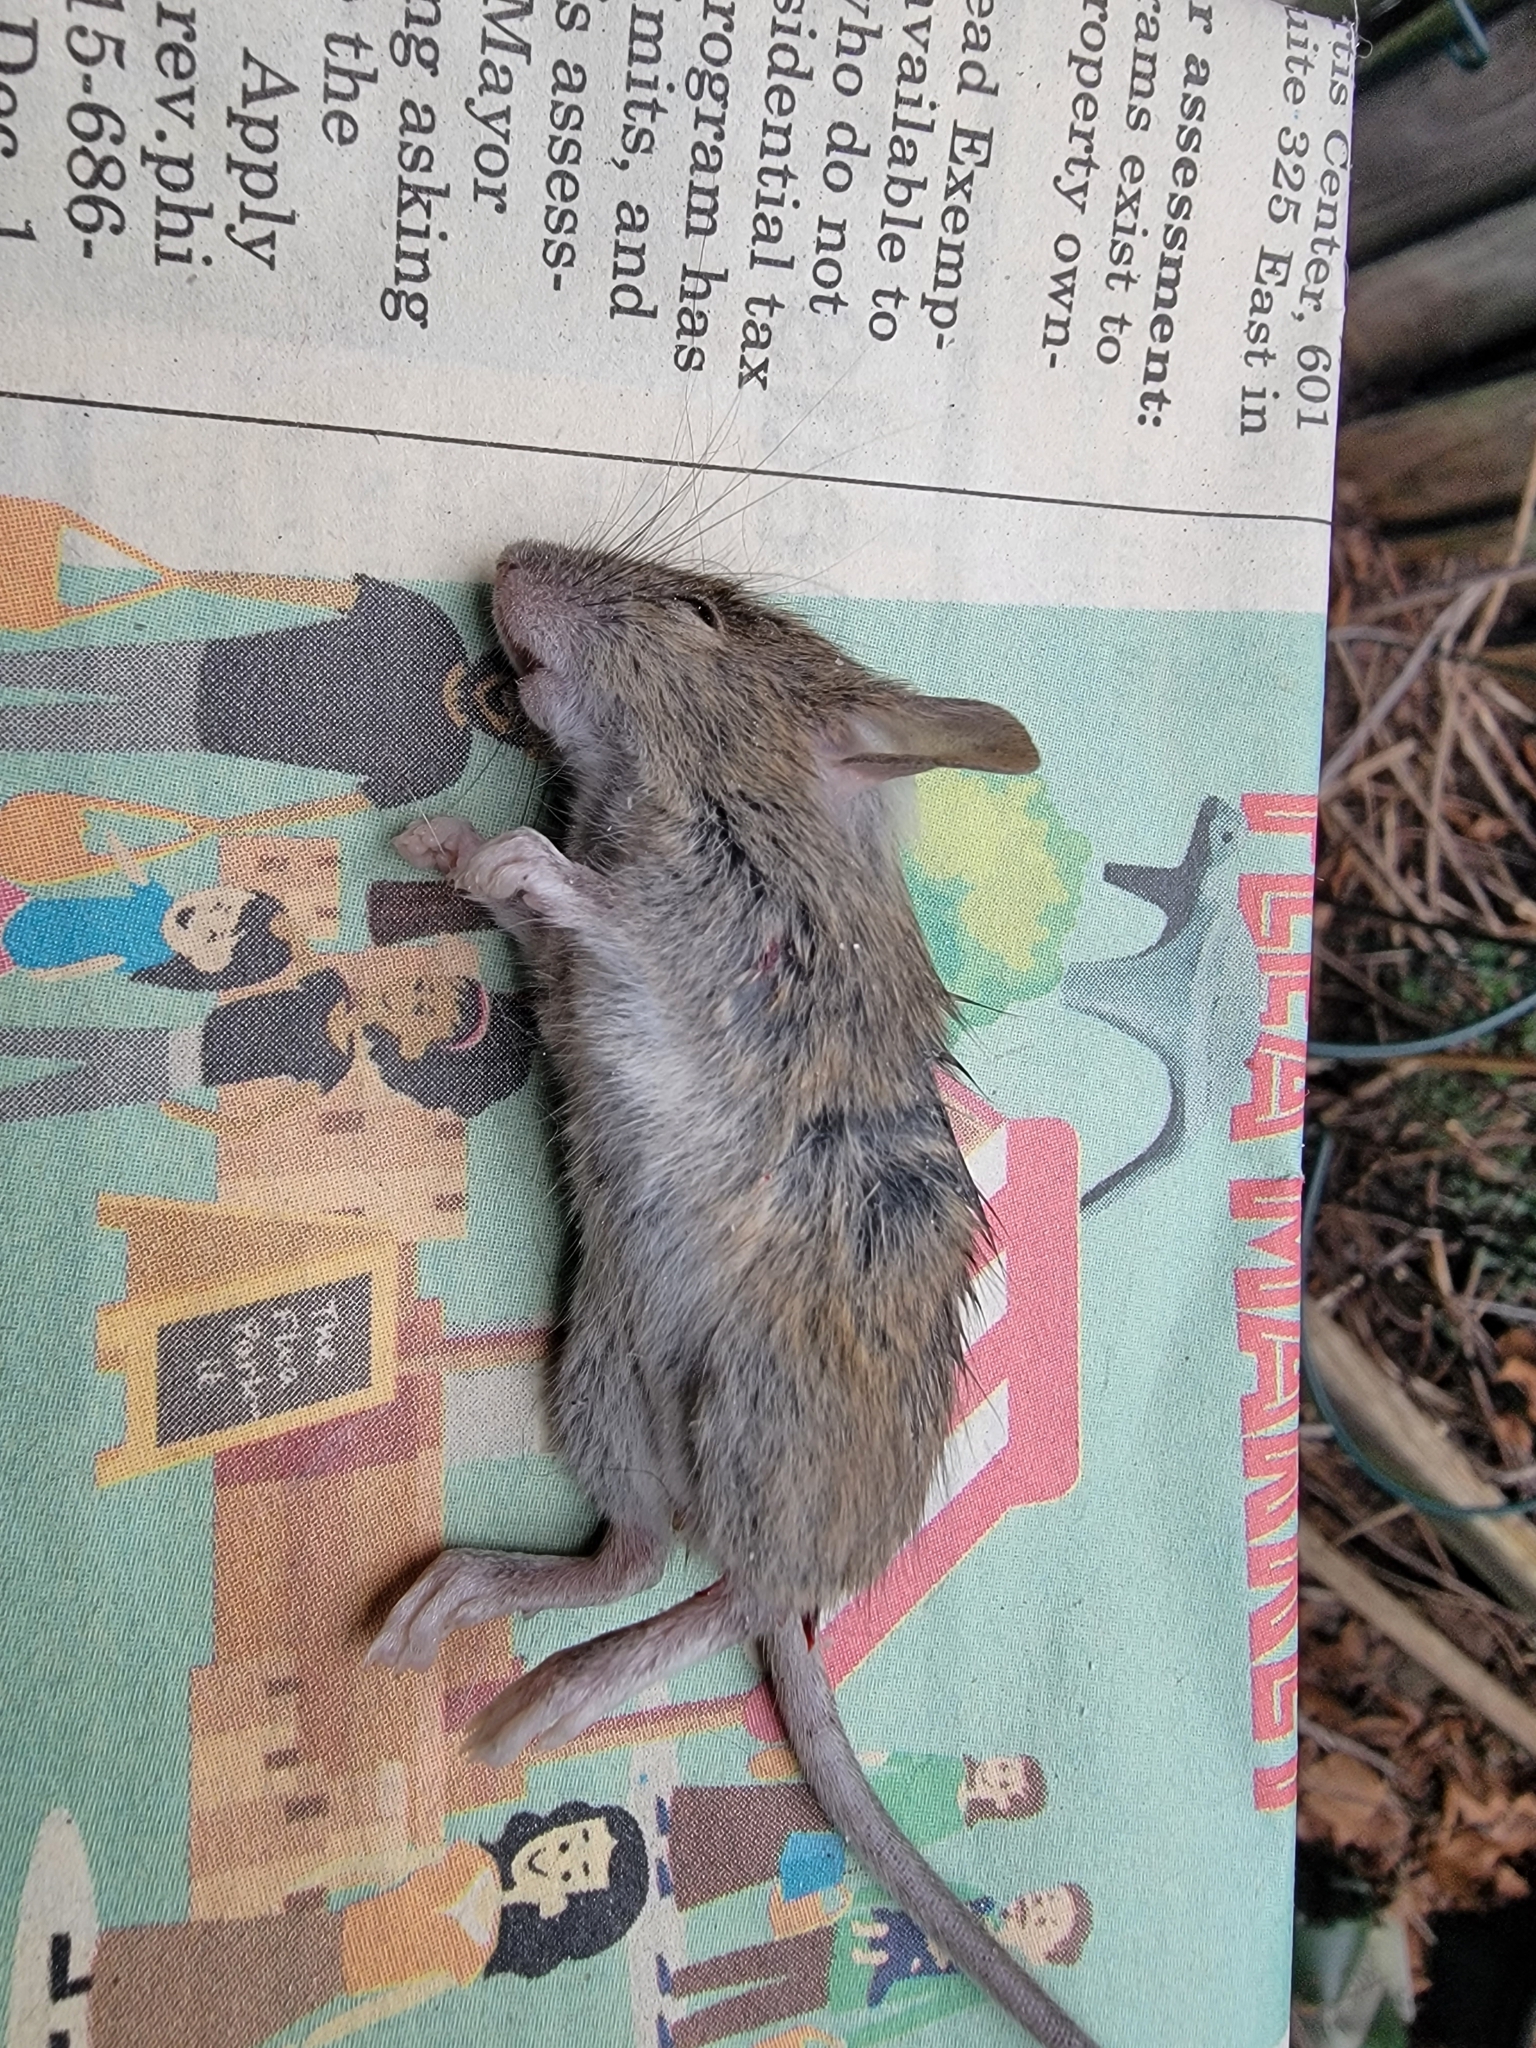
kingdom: Animalia
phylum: Chordata
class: Mammalia
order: Rodentia
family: Muridae
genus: Mus
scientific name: Mus musculus
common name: House mouse
